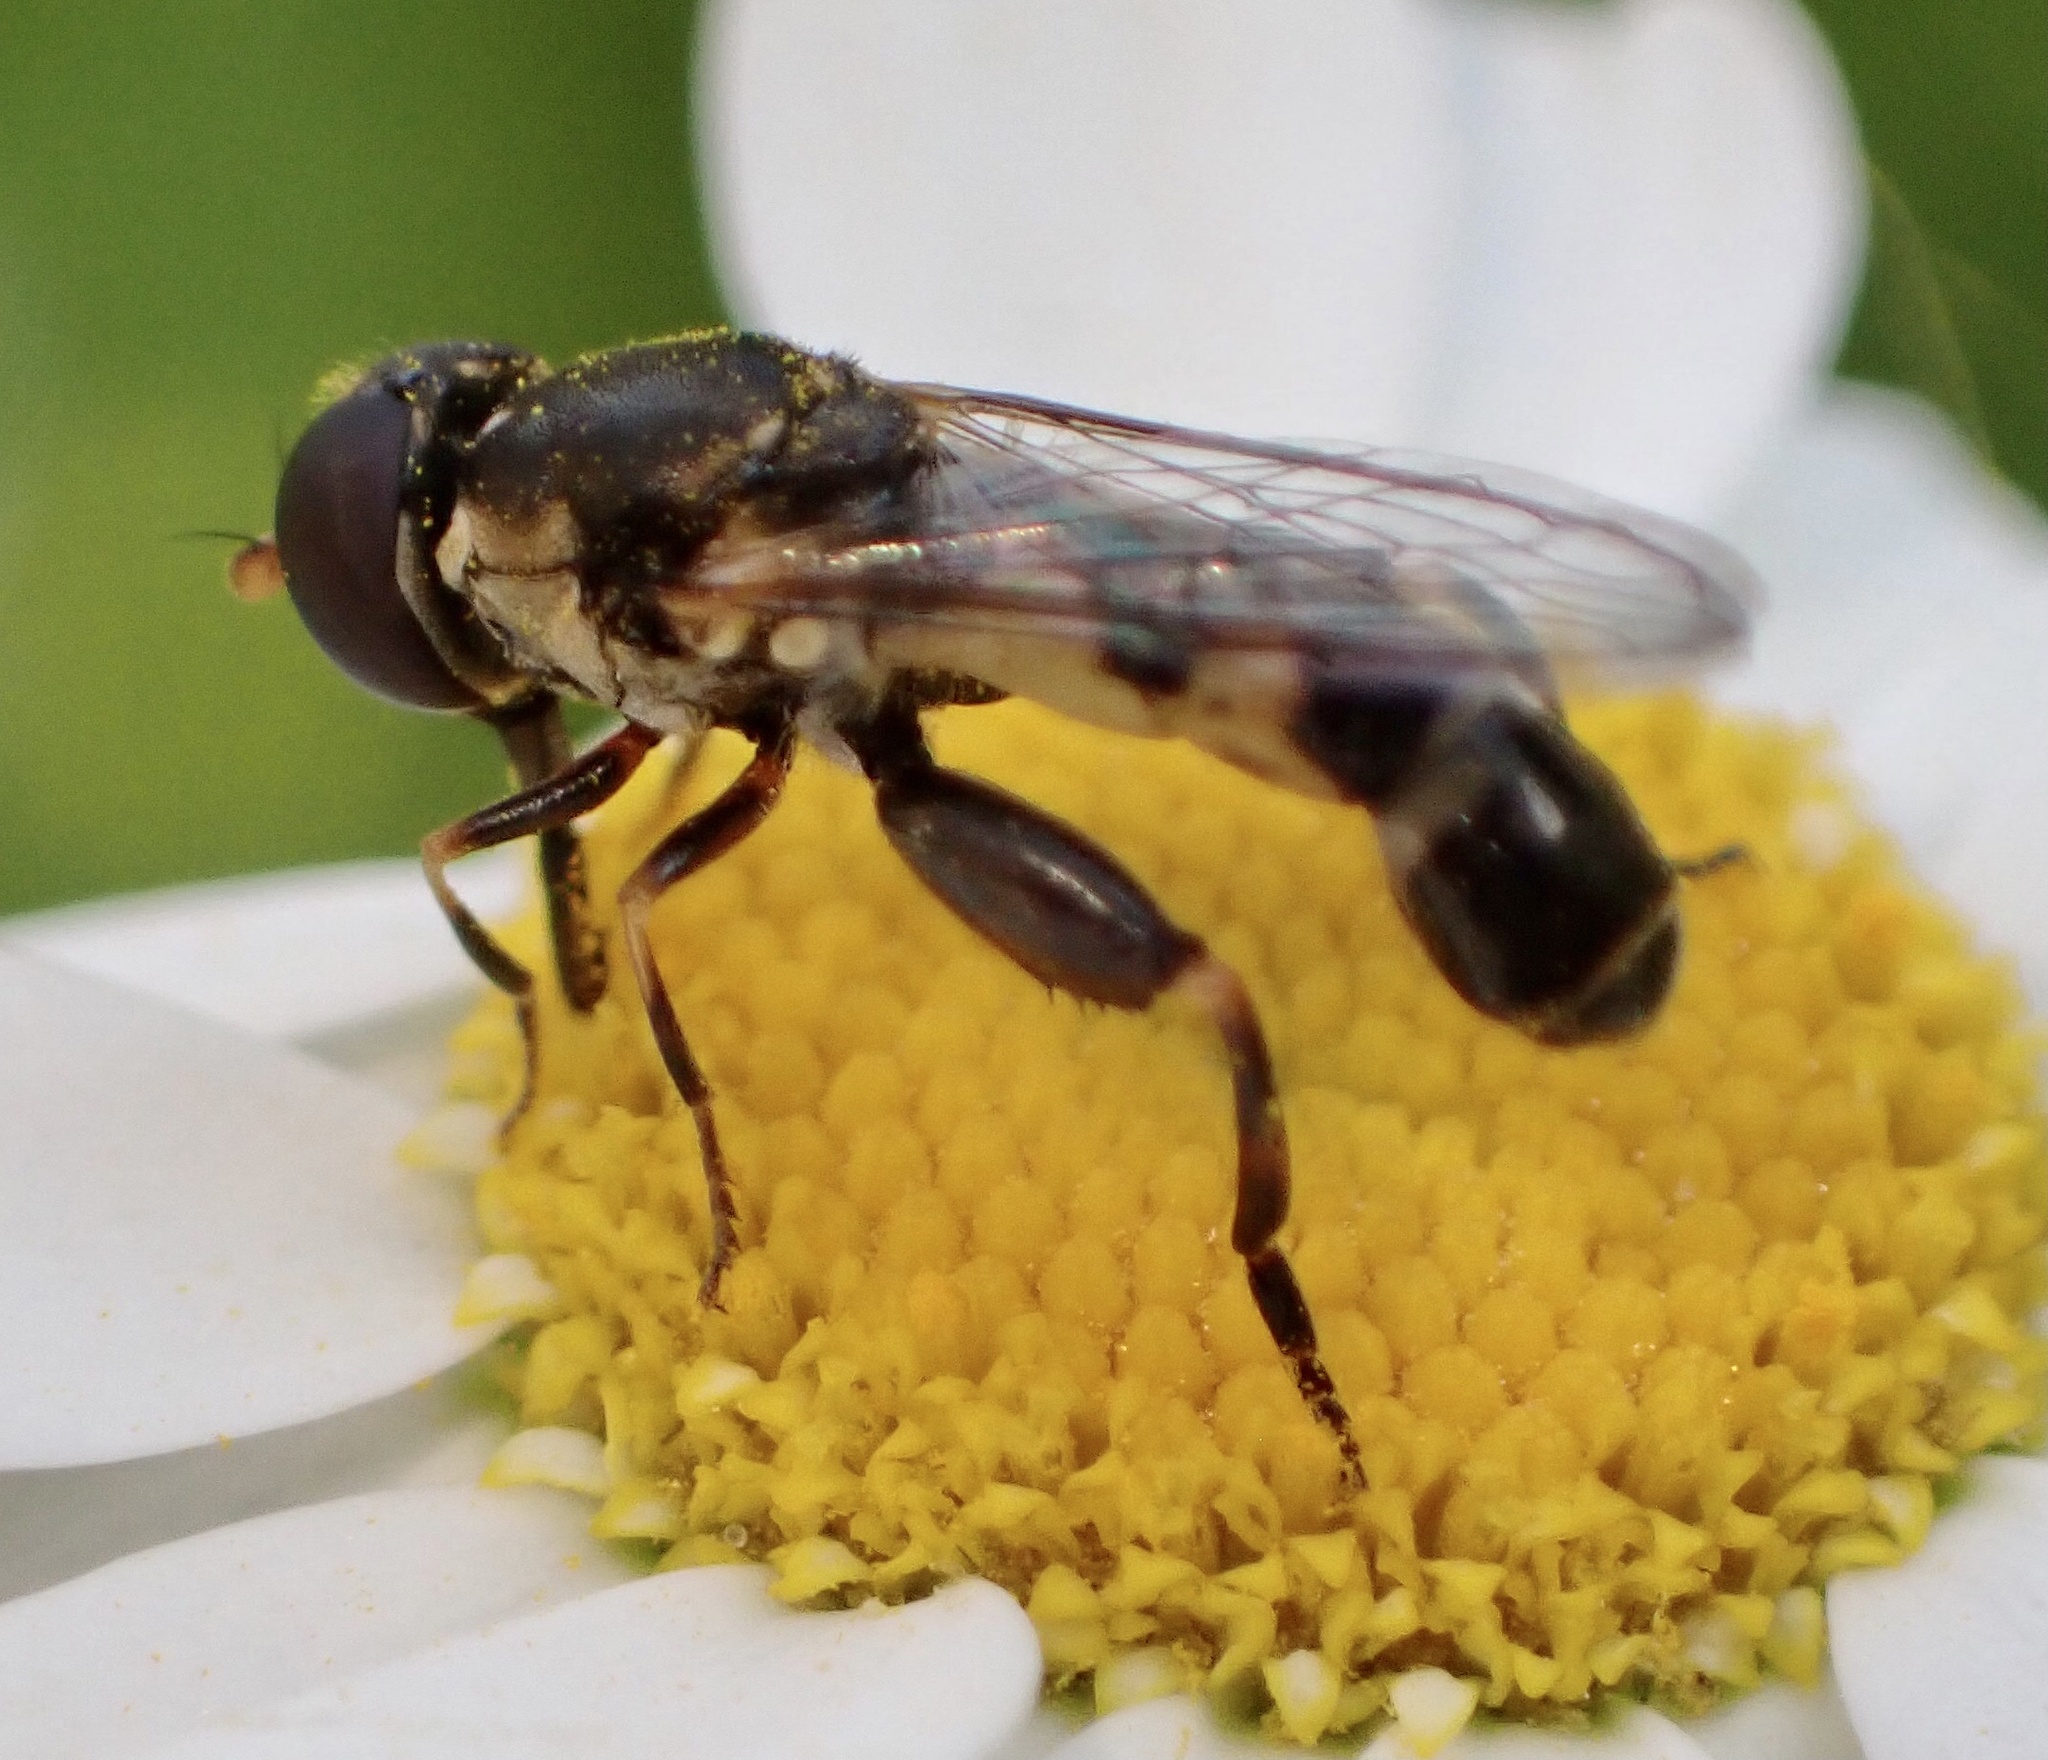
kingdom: Animalia
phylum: Arthropoda
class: Insecta
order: Diptera
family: Syrphidae
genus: Syritta
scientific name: Syritta pipiens
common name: Hover fly
